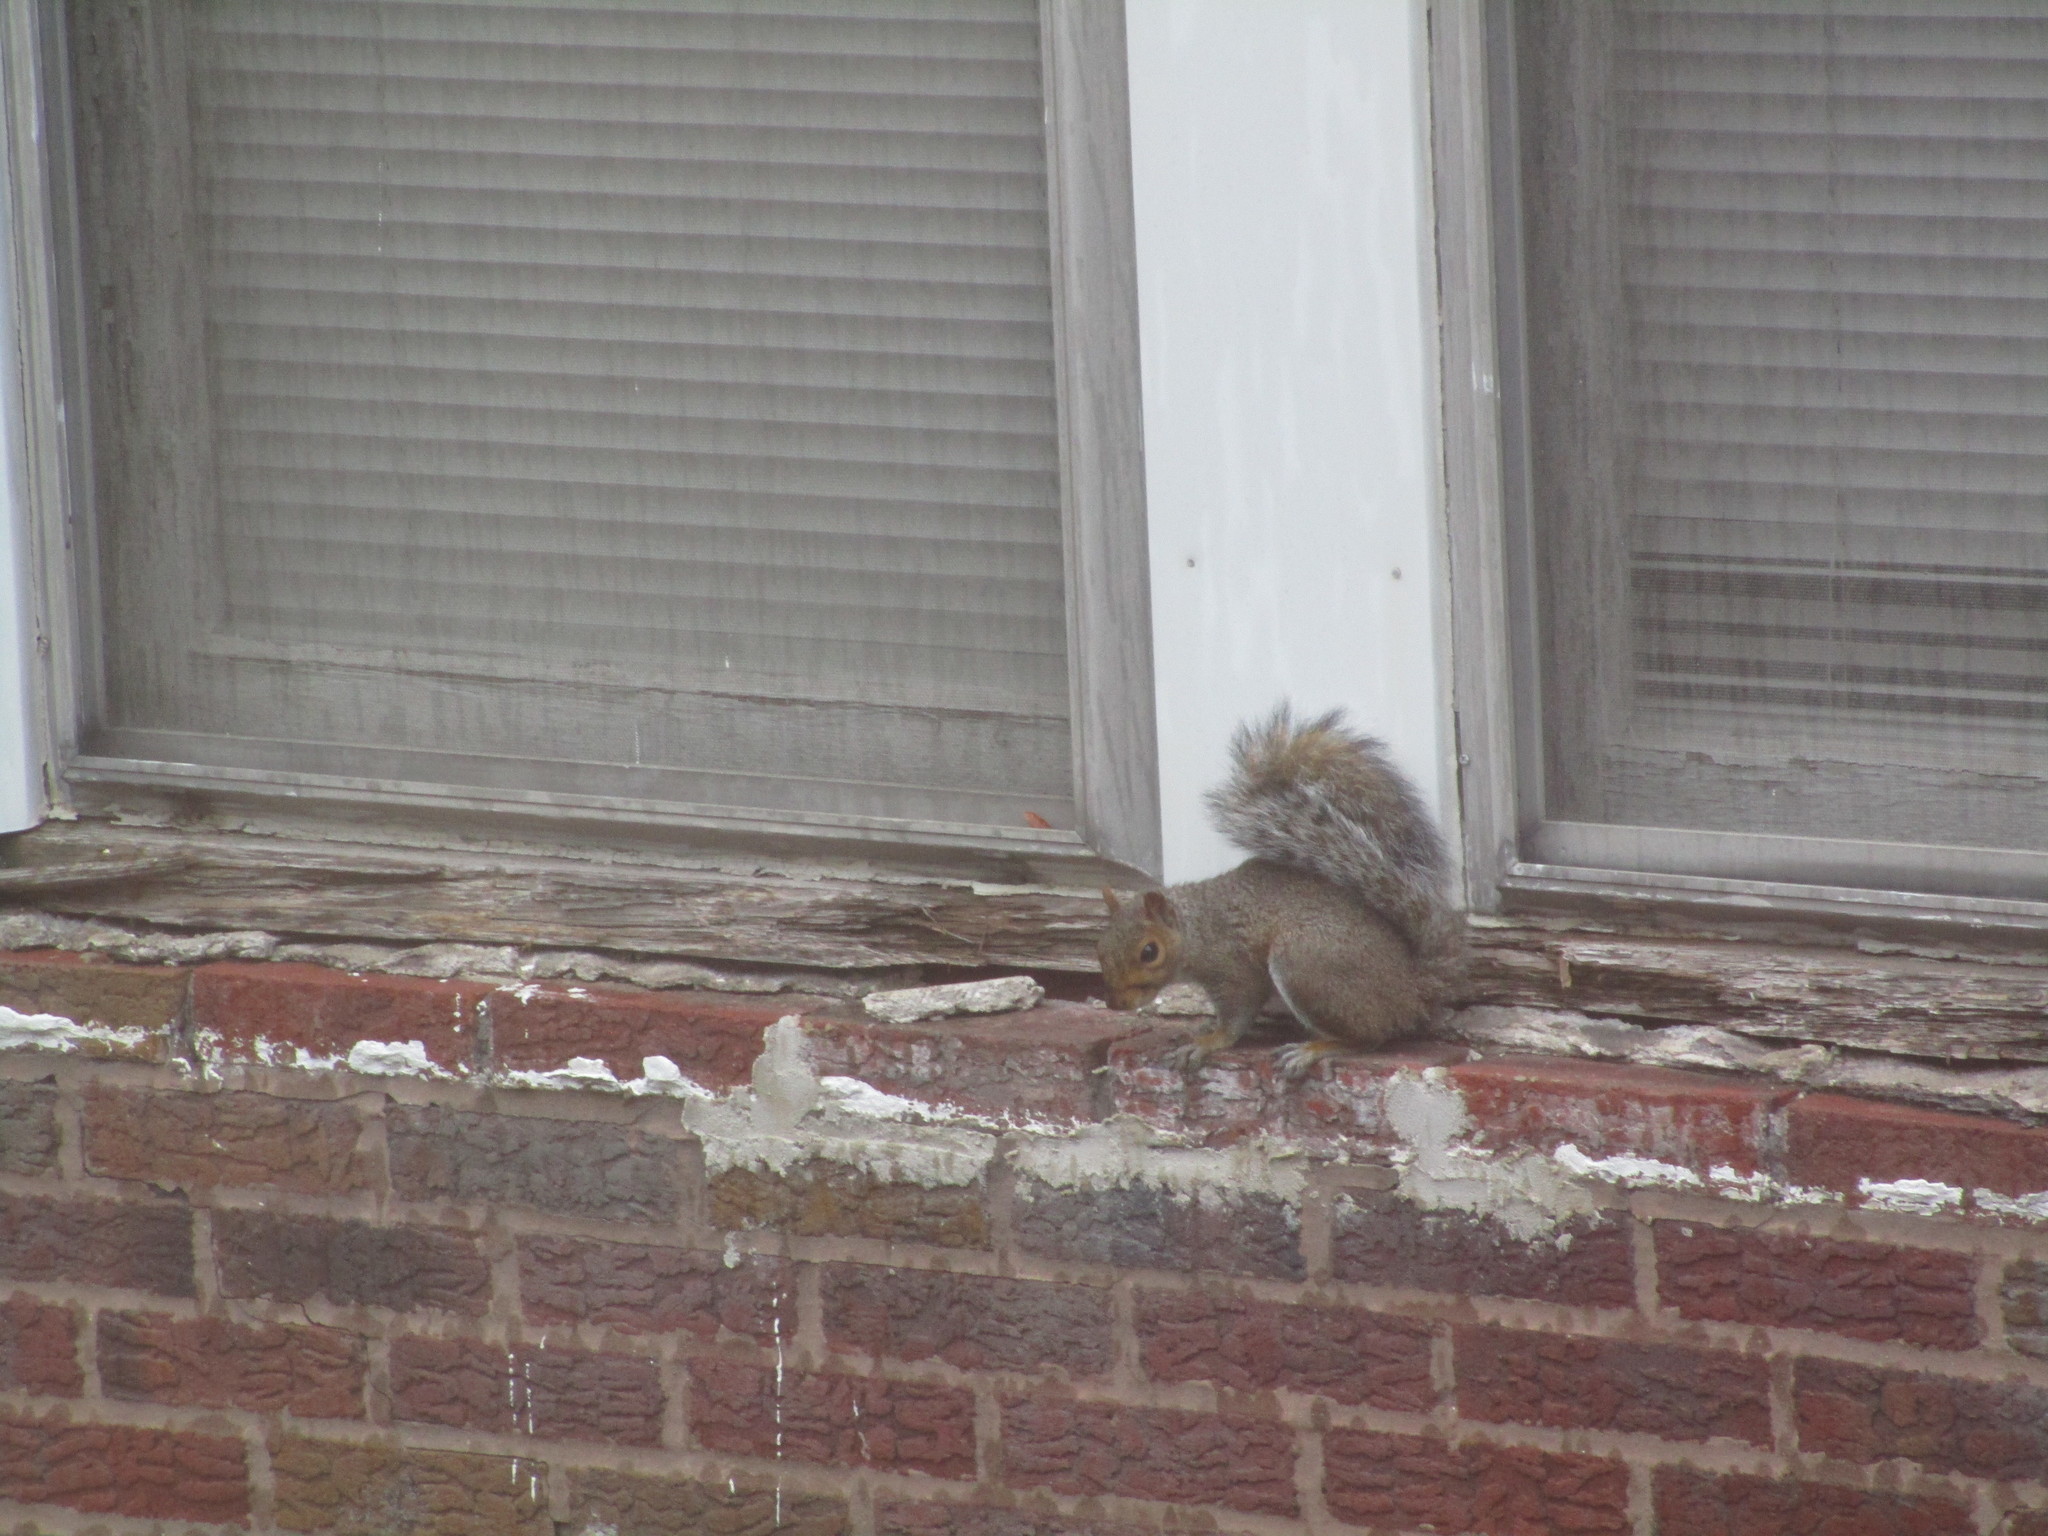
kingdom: Animalia
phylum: Chordata
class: Mammalia
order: Rodentia
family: Sciuridae
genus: Sciurus
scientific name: Sciurus carolinensis
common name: Eastern gray squirrel
